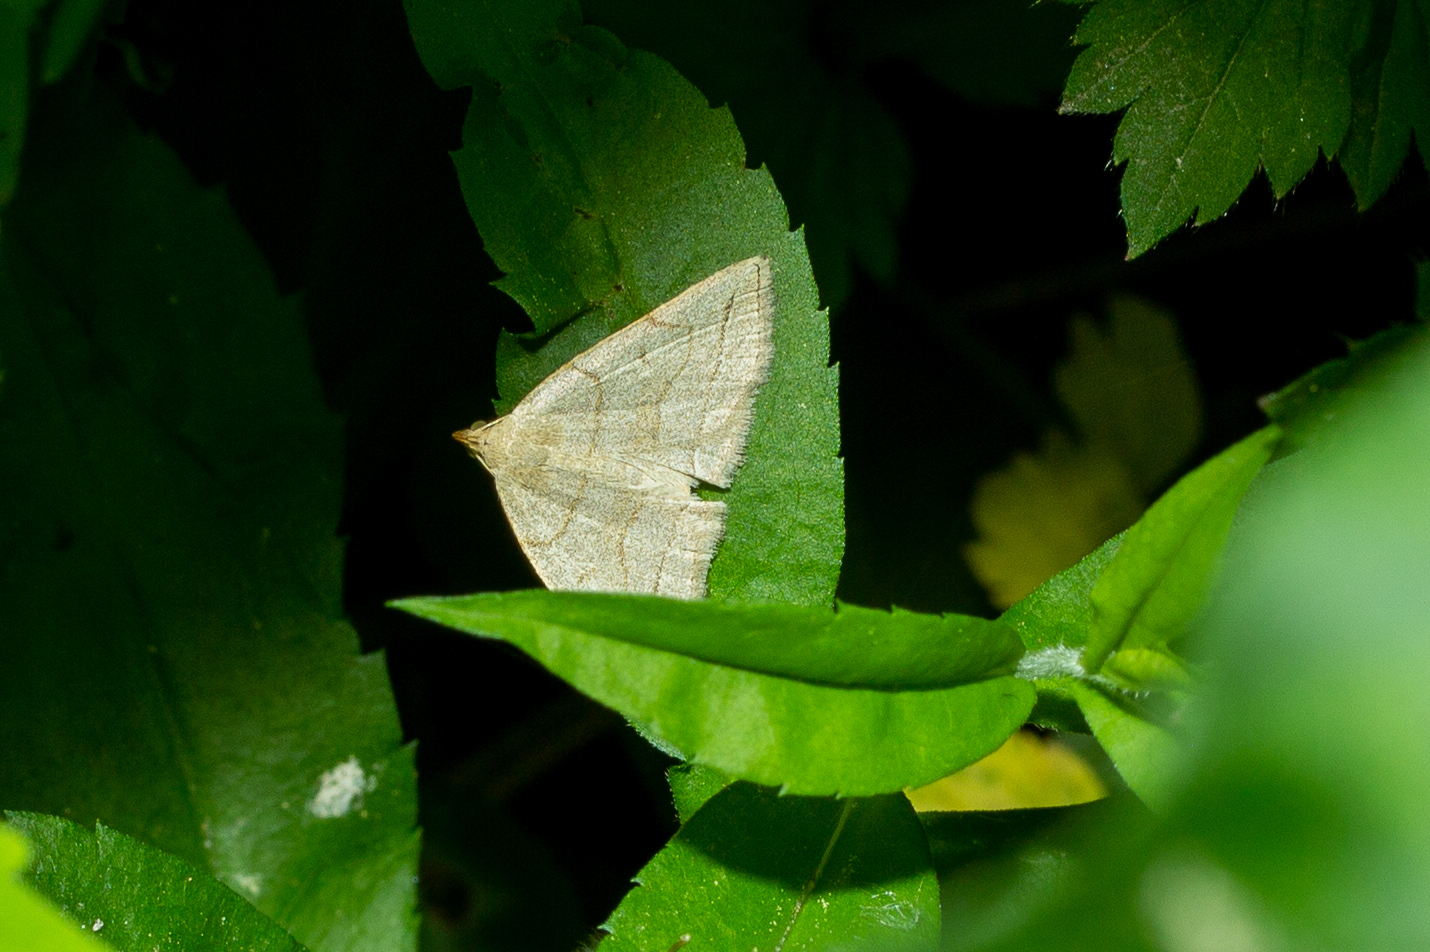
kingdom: Animalia
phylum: Arthropoda
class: Insecta
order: Lepidoptera
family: Erebidae
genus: Zanclognatha
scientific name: Zanclognatha pedipilalis
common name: Grayish fan-foot
